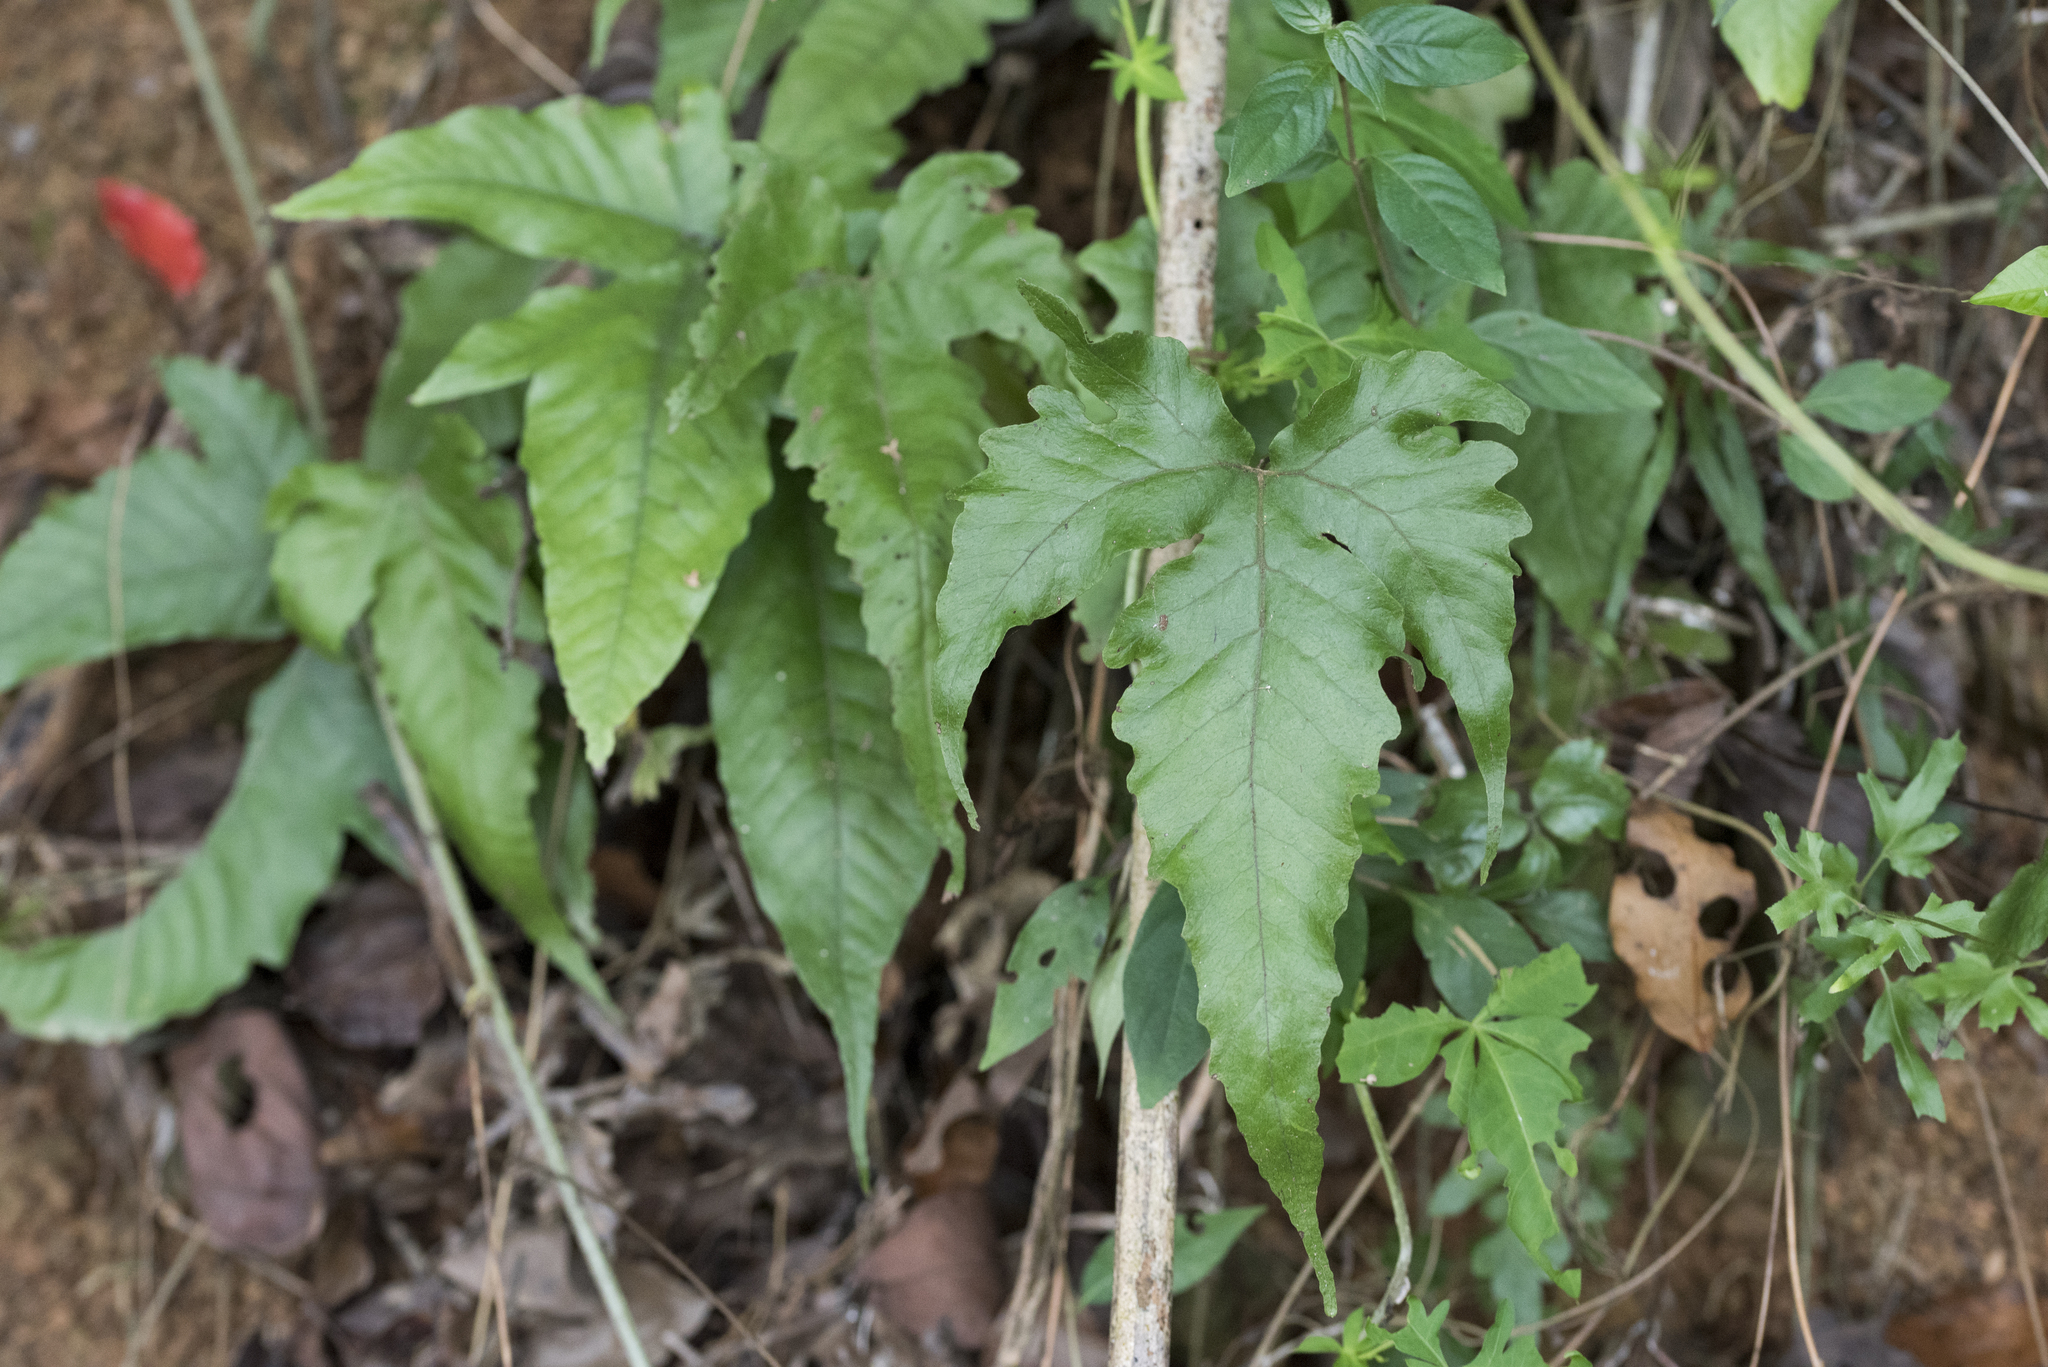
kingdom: Plantae
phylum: Tracheophyta
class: Polypodiopsida
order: Polypodiales
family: Tectariaceae
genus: Tectaria
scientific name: Tectaria subtriphylla
